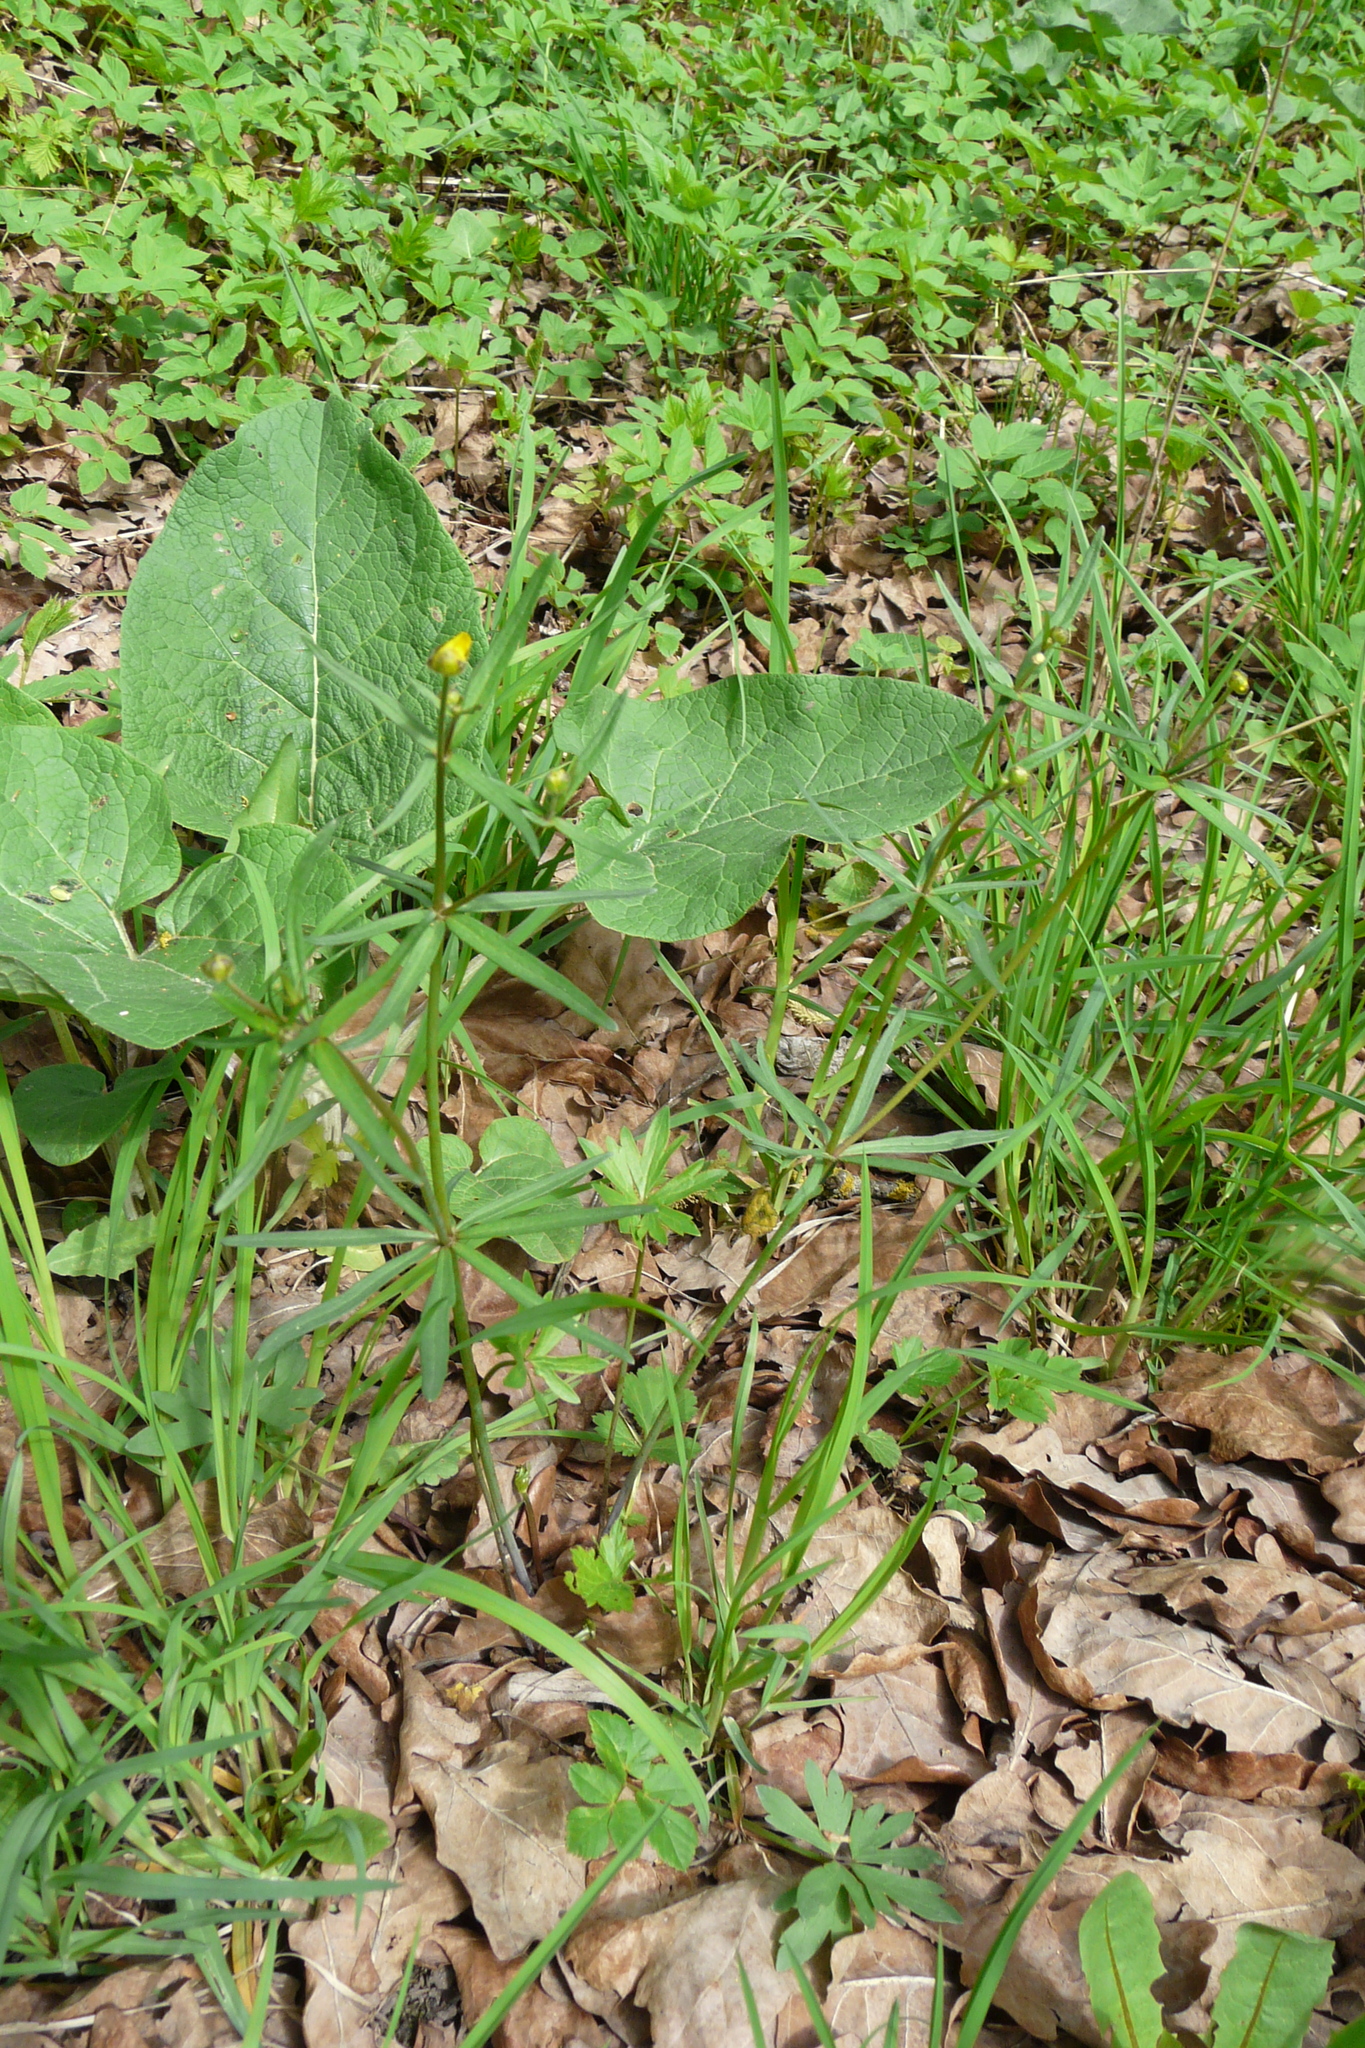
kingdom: Plantae
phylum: Tracheophyta
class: Magnoliopsida
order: Ranunculales
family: Ranunculaceae
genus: Ranunculus
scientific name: Ranunculus auricomus
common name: Goldilocks buttercup
